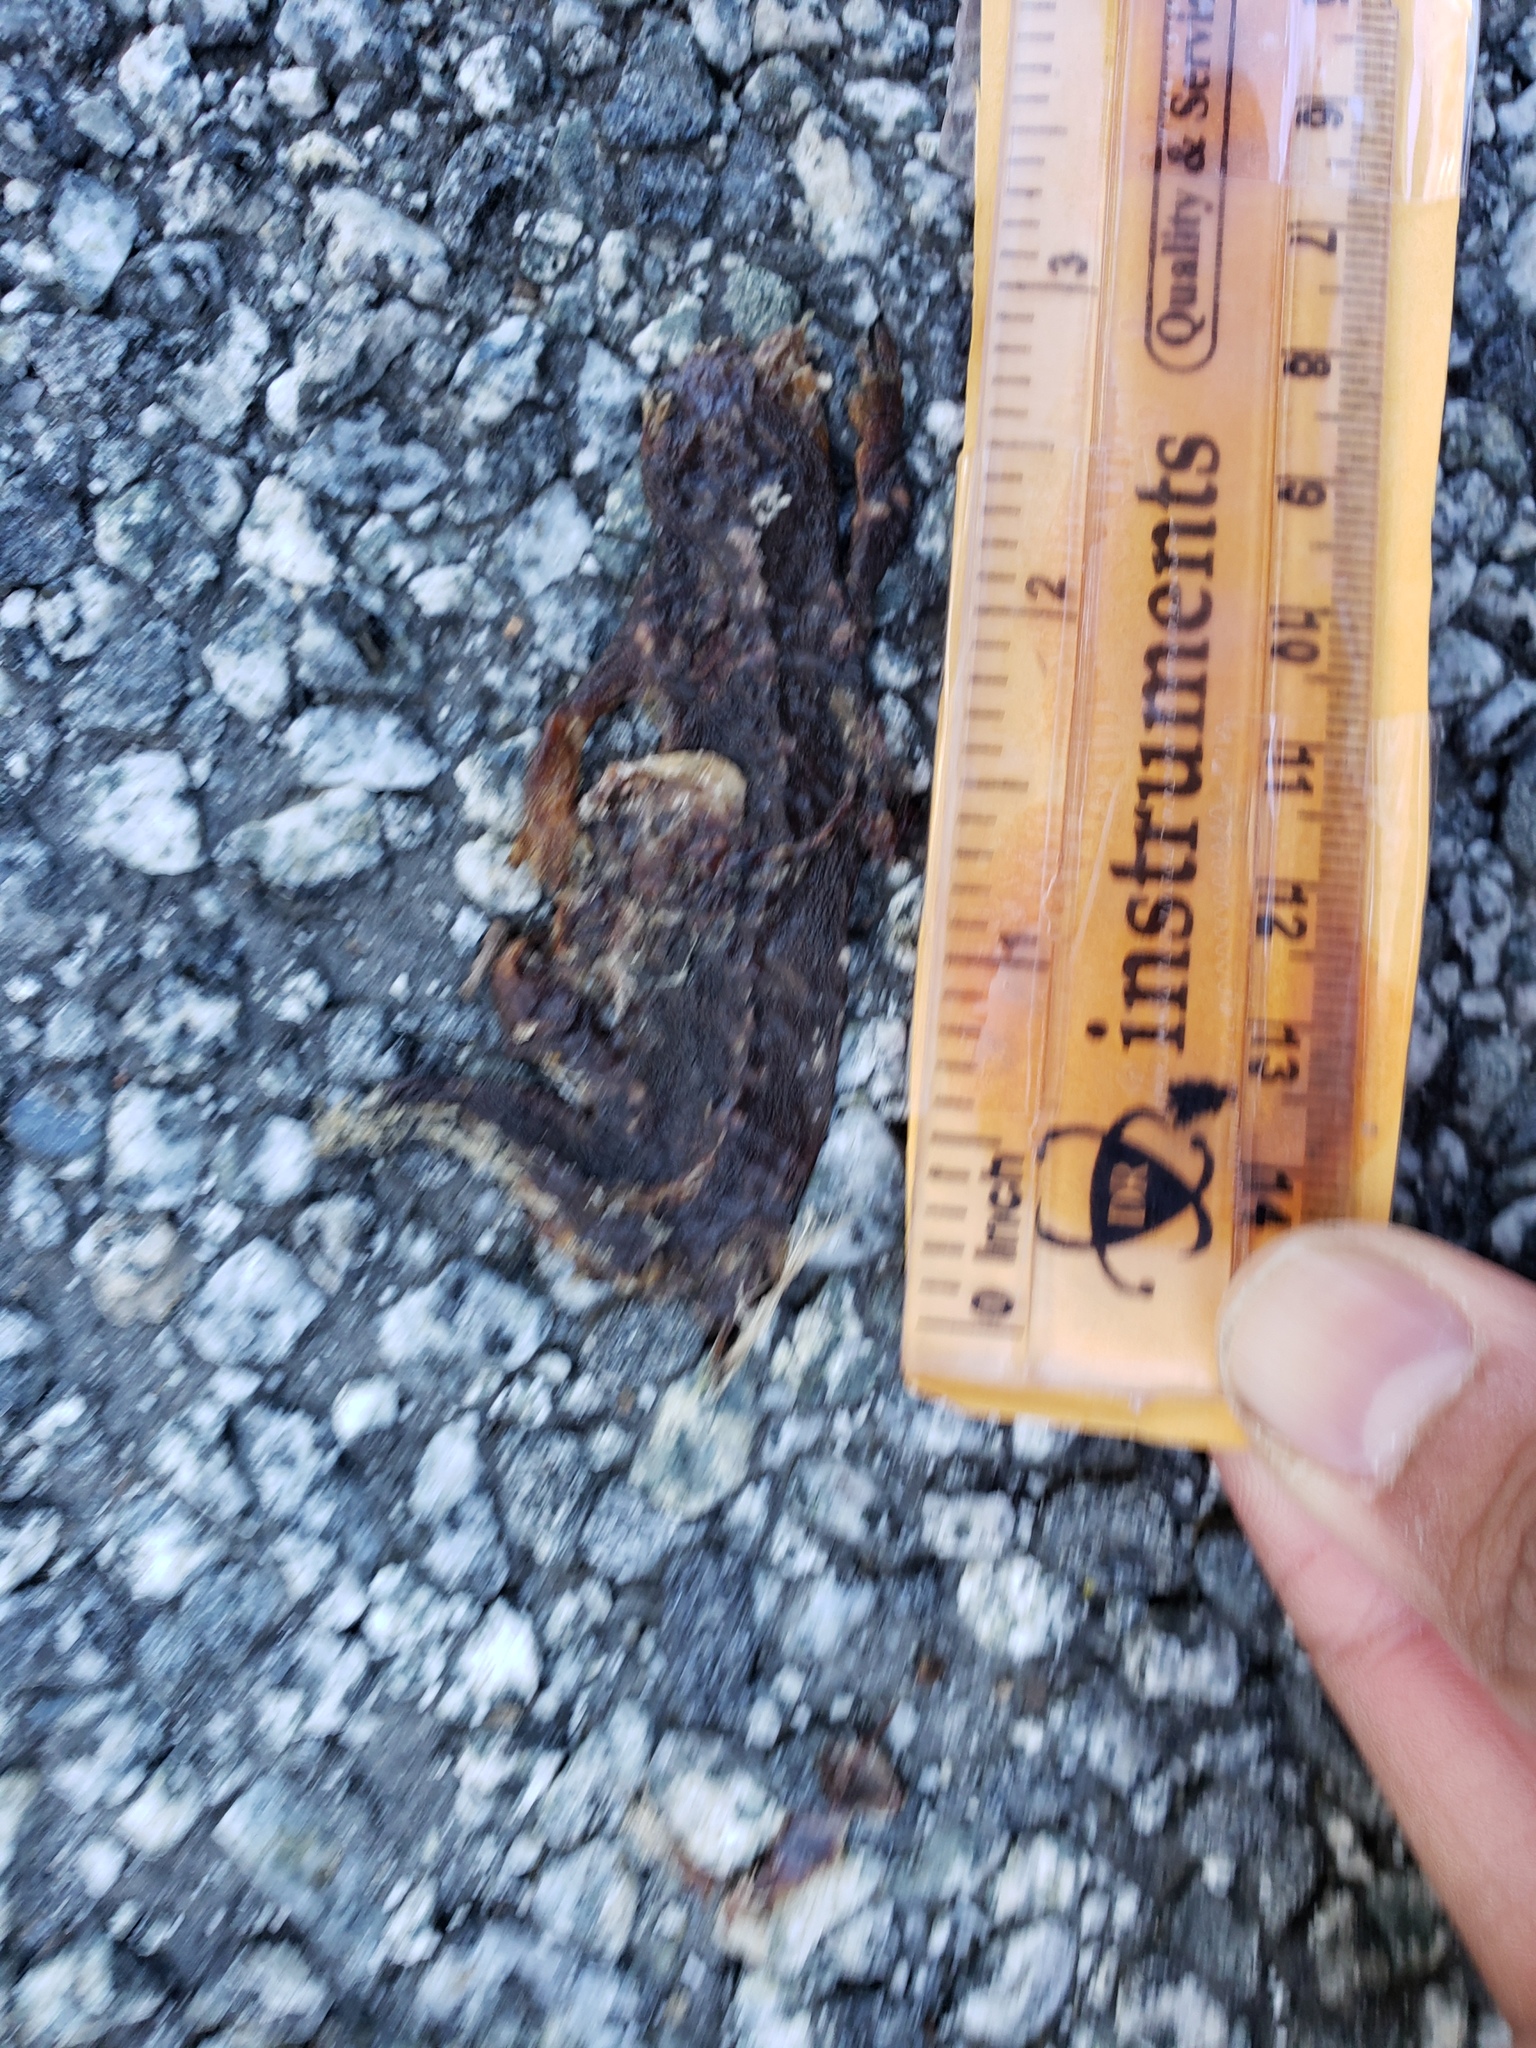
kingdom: Animalia
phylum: Chordata
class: Amphibia
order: Caudata
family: Salamandridae
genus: Taricha
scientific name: Taricha
